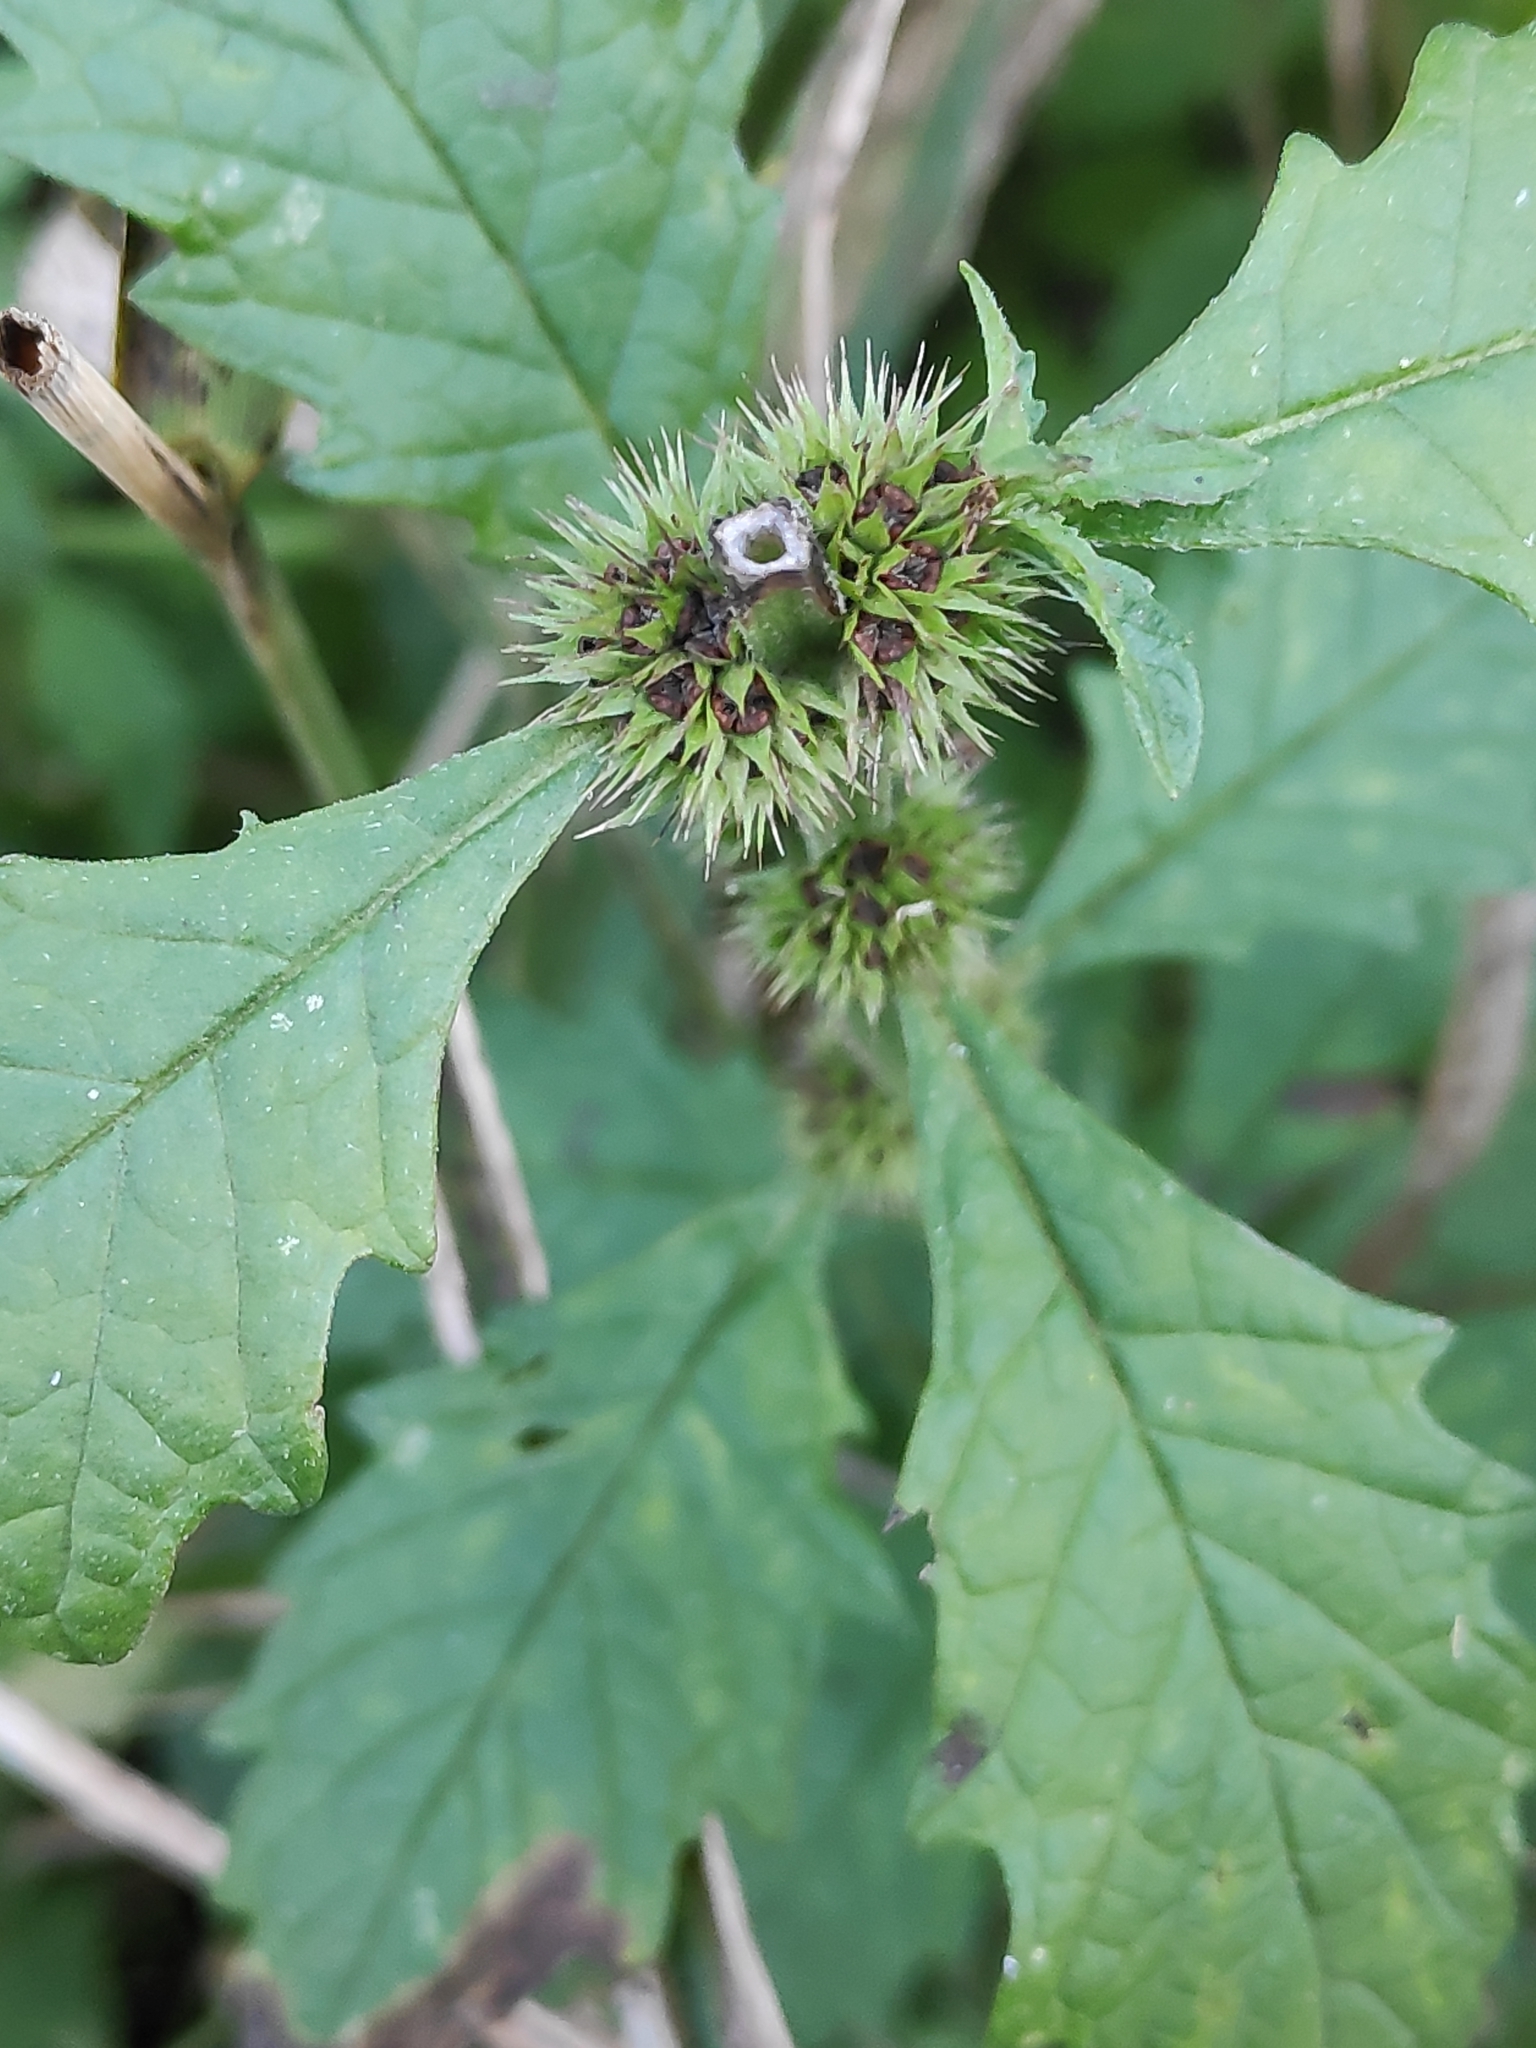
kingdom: Plantae
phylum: Tracheophyta
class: Magnoliopsida
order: Lamiales
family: Lamiaceae
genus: Lycopus
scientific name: Lycopus europaeus
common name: European bugleweed
